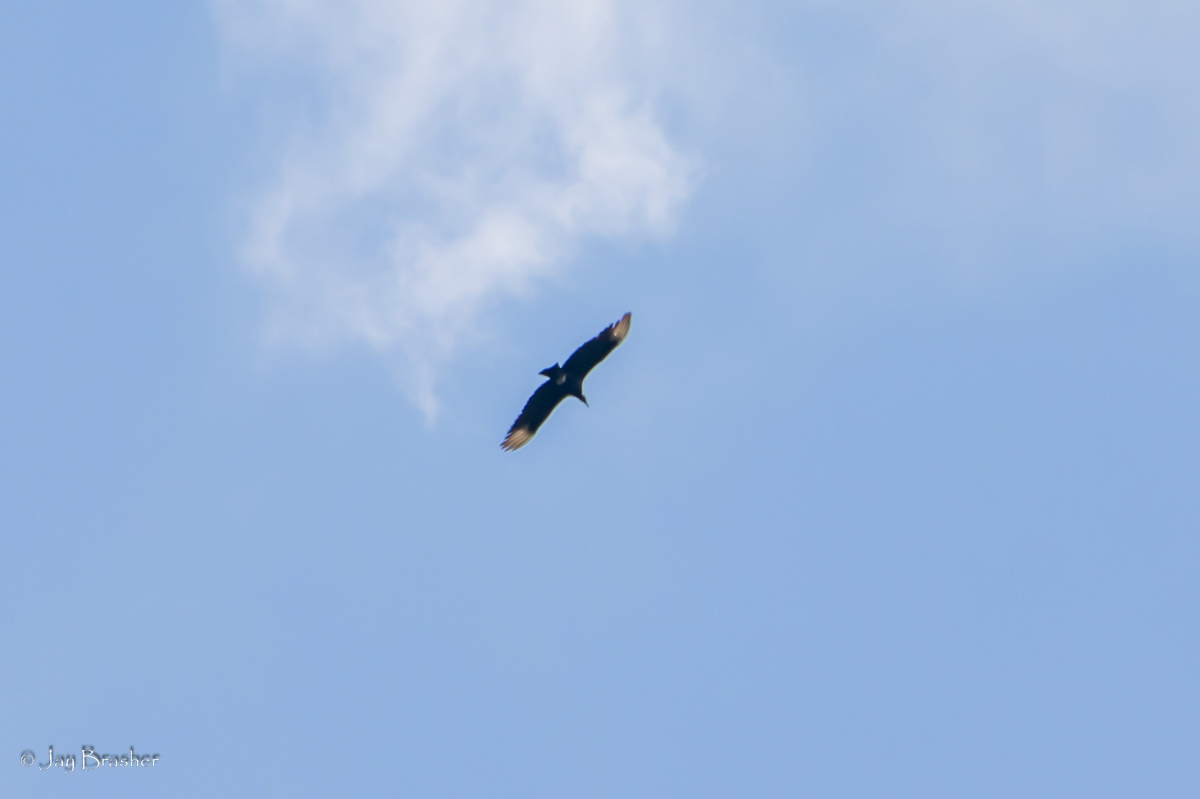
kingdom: Animalia
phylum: Chordata
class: Aves
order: Accipitriformes
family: Cathartidae
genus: Coragyps
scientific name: Coragyps atratus
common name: Black vulture
